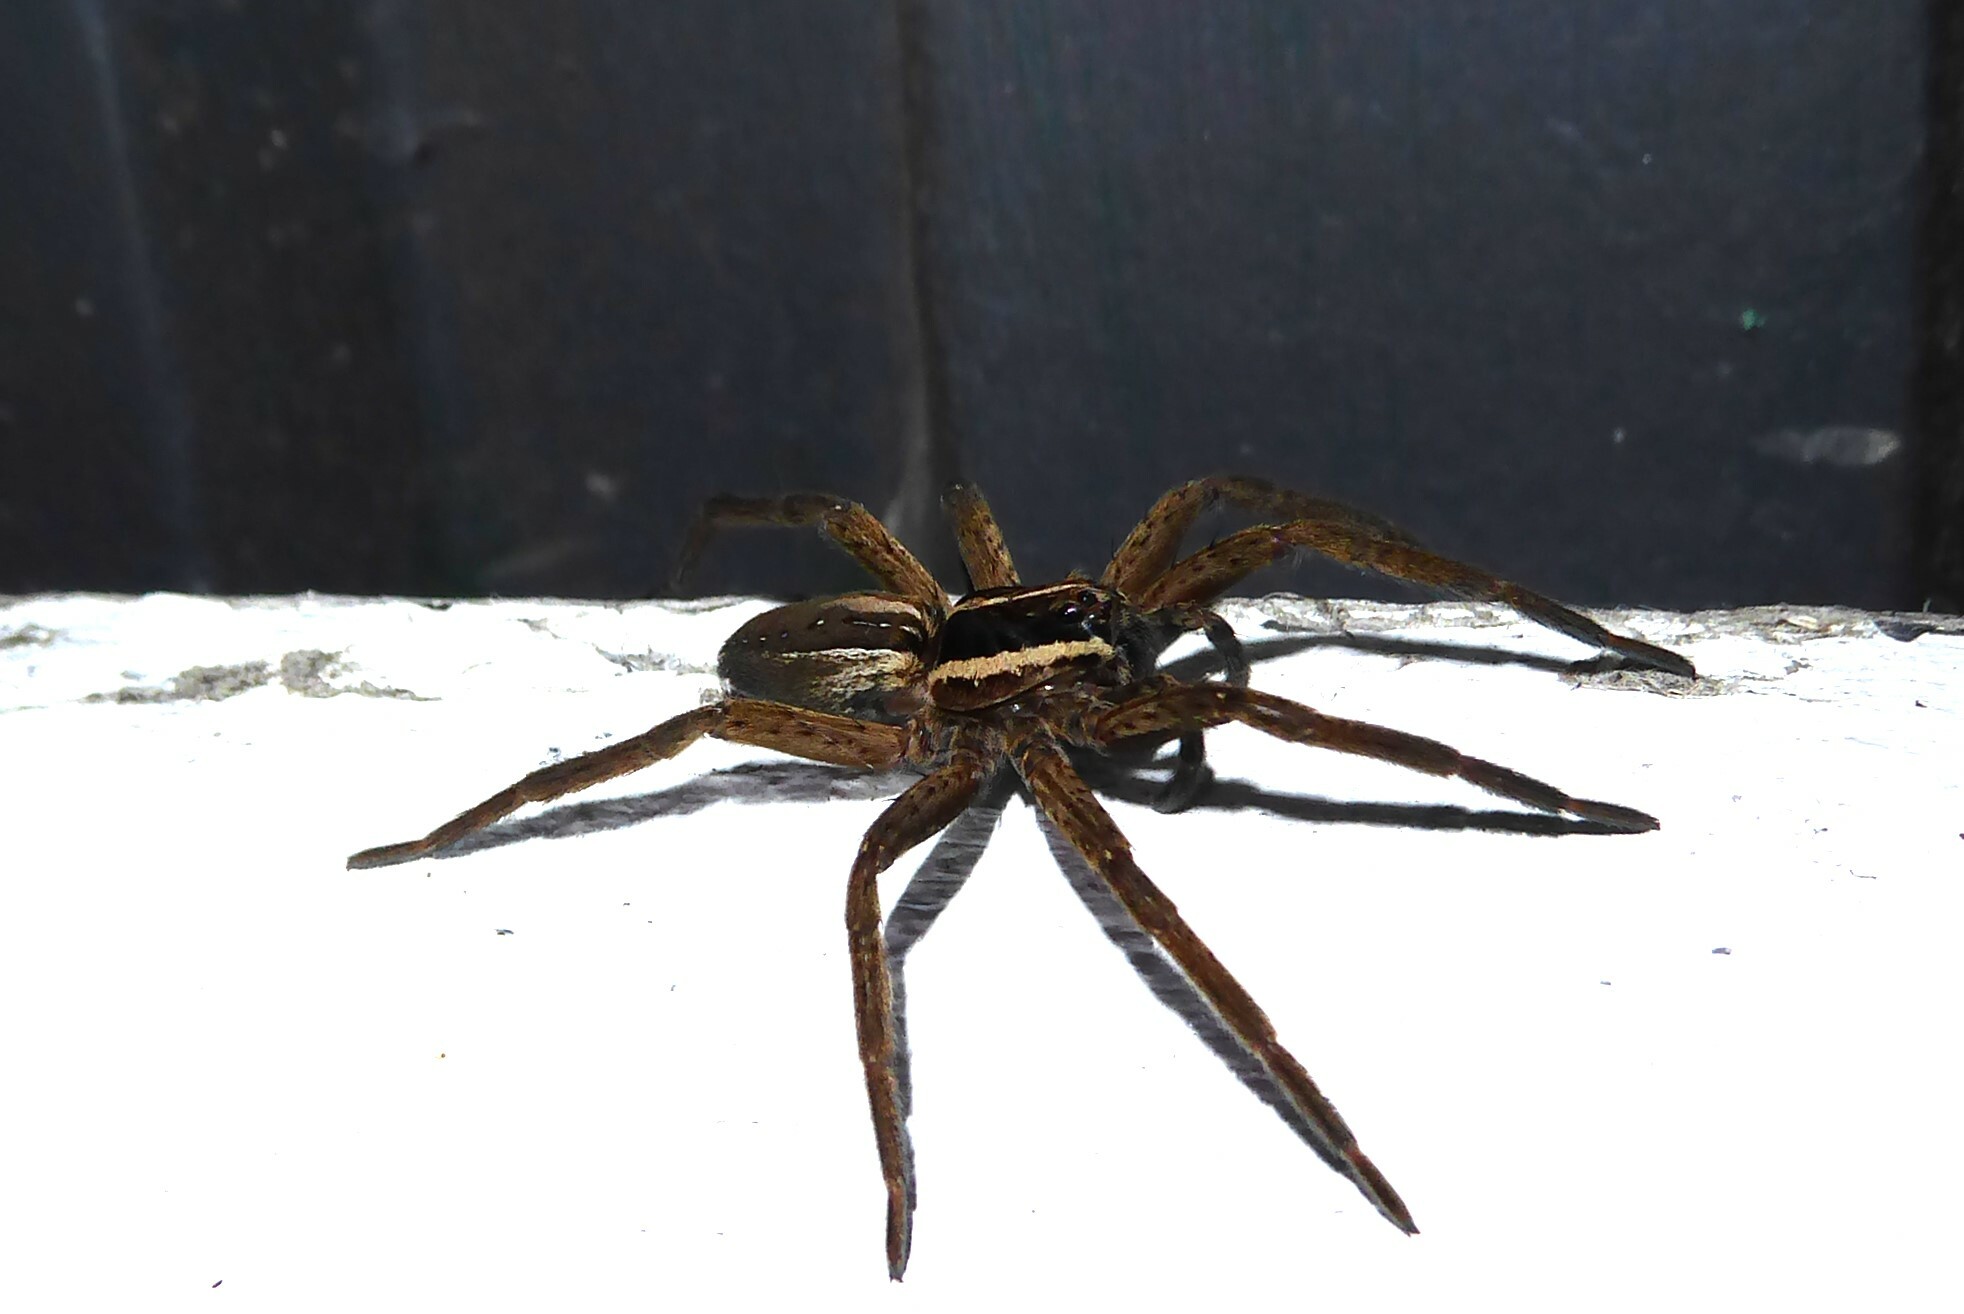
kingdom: Animalia
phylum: Arthropoda
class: Arachnida
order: Araneae
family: Pisauridae
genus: Dolomedes
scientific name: Dolomedes minor
